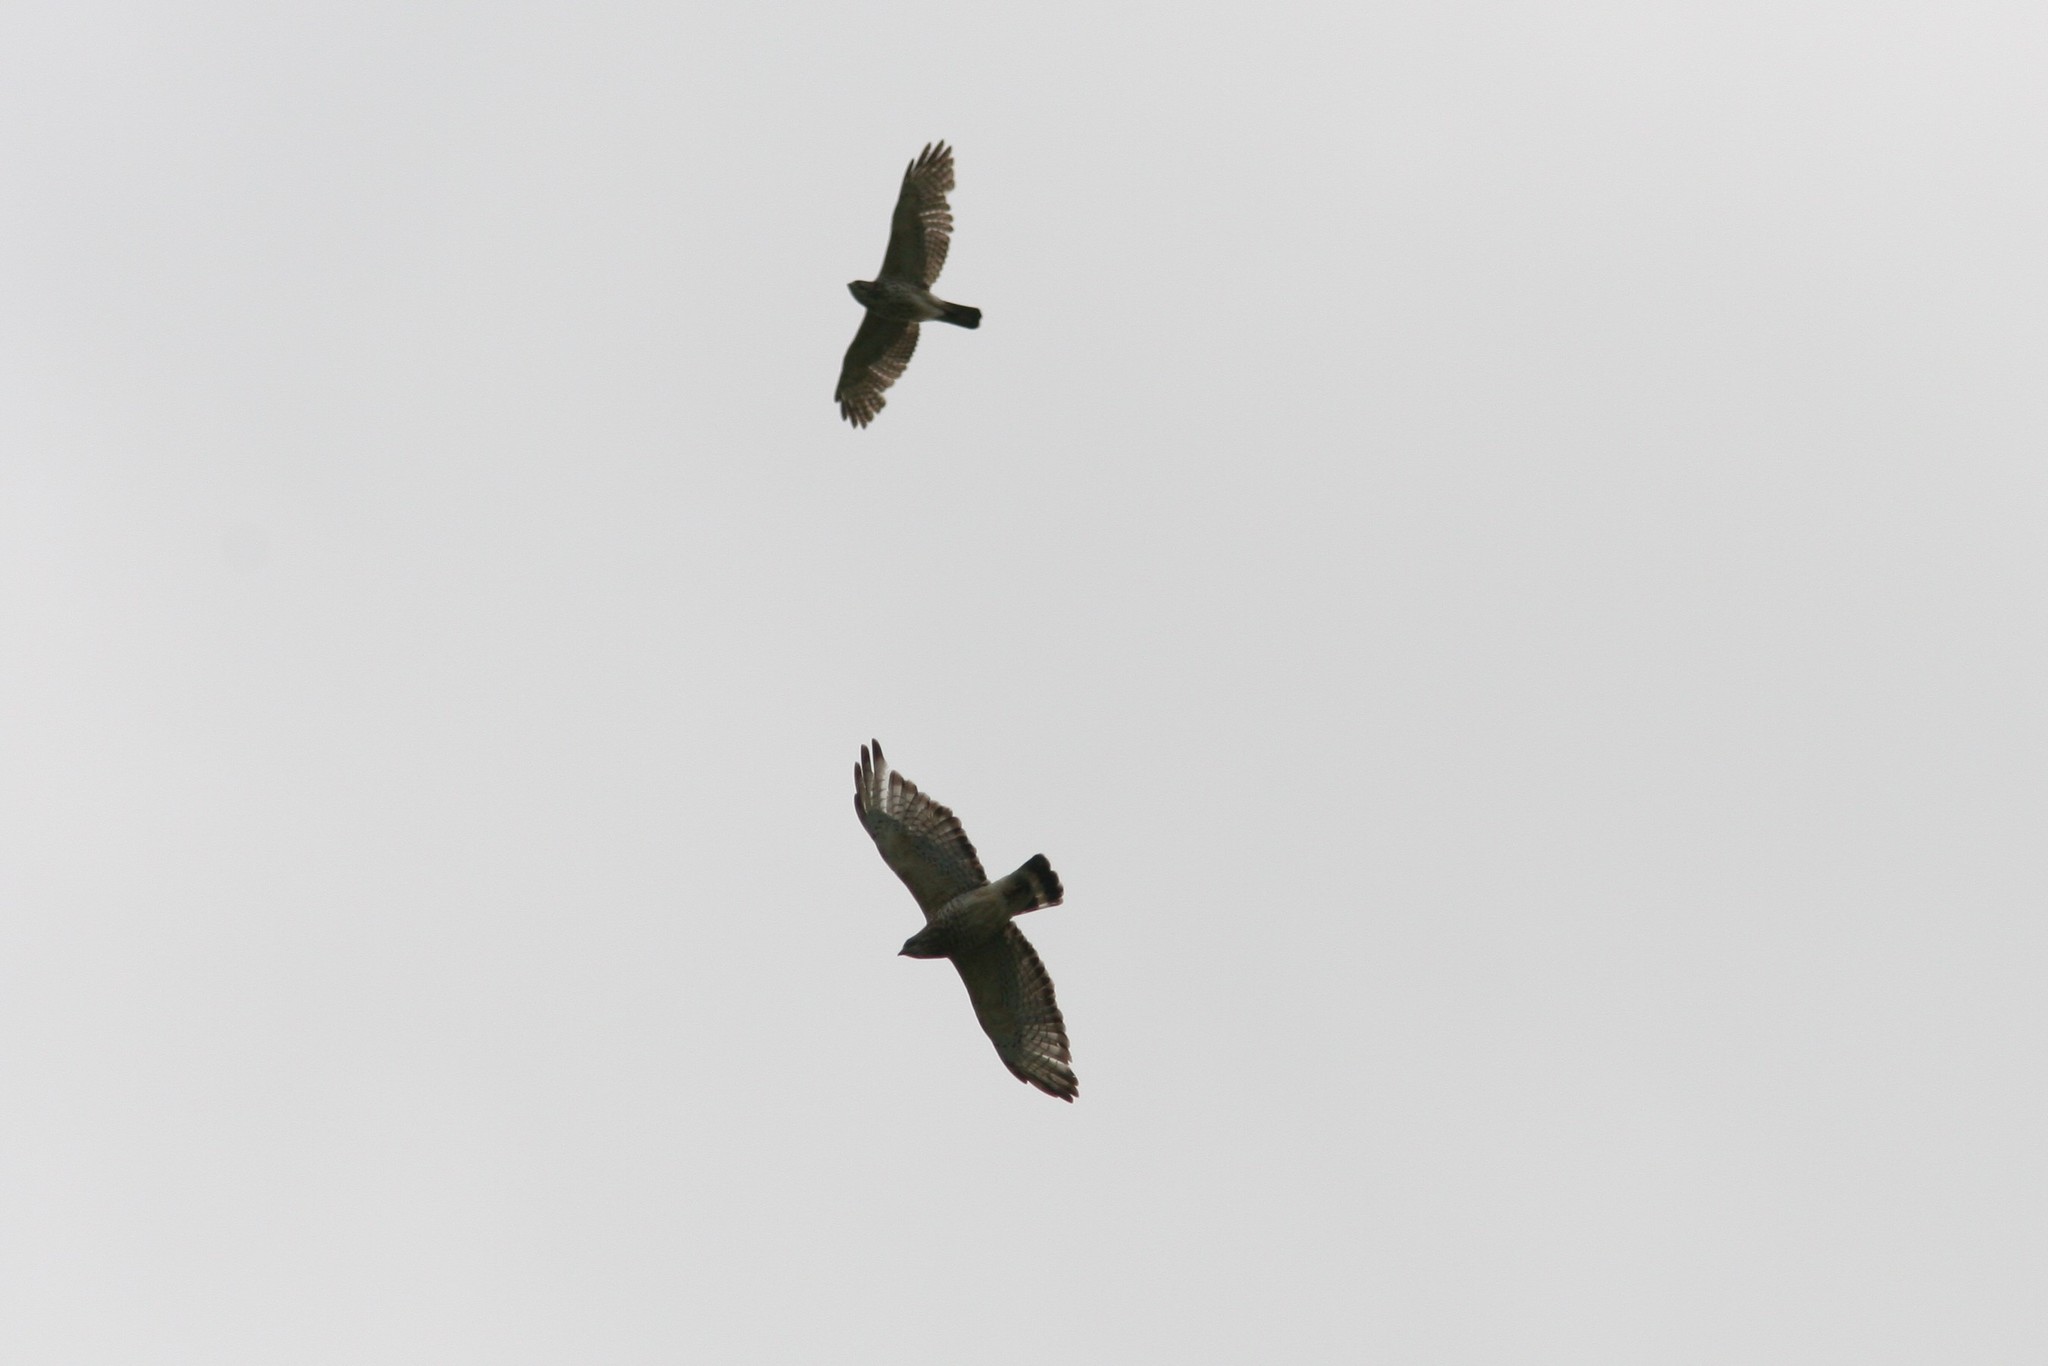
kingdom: Animalia
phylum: Chordata
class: Aves
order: Accipitriformes
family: Accipitridae
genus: Buteo
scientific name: Buteo platypterus
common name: Broad-winged hawk
